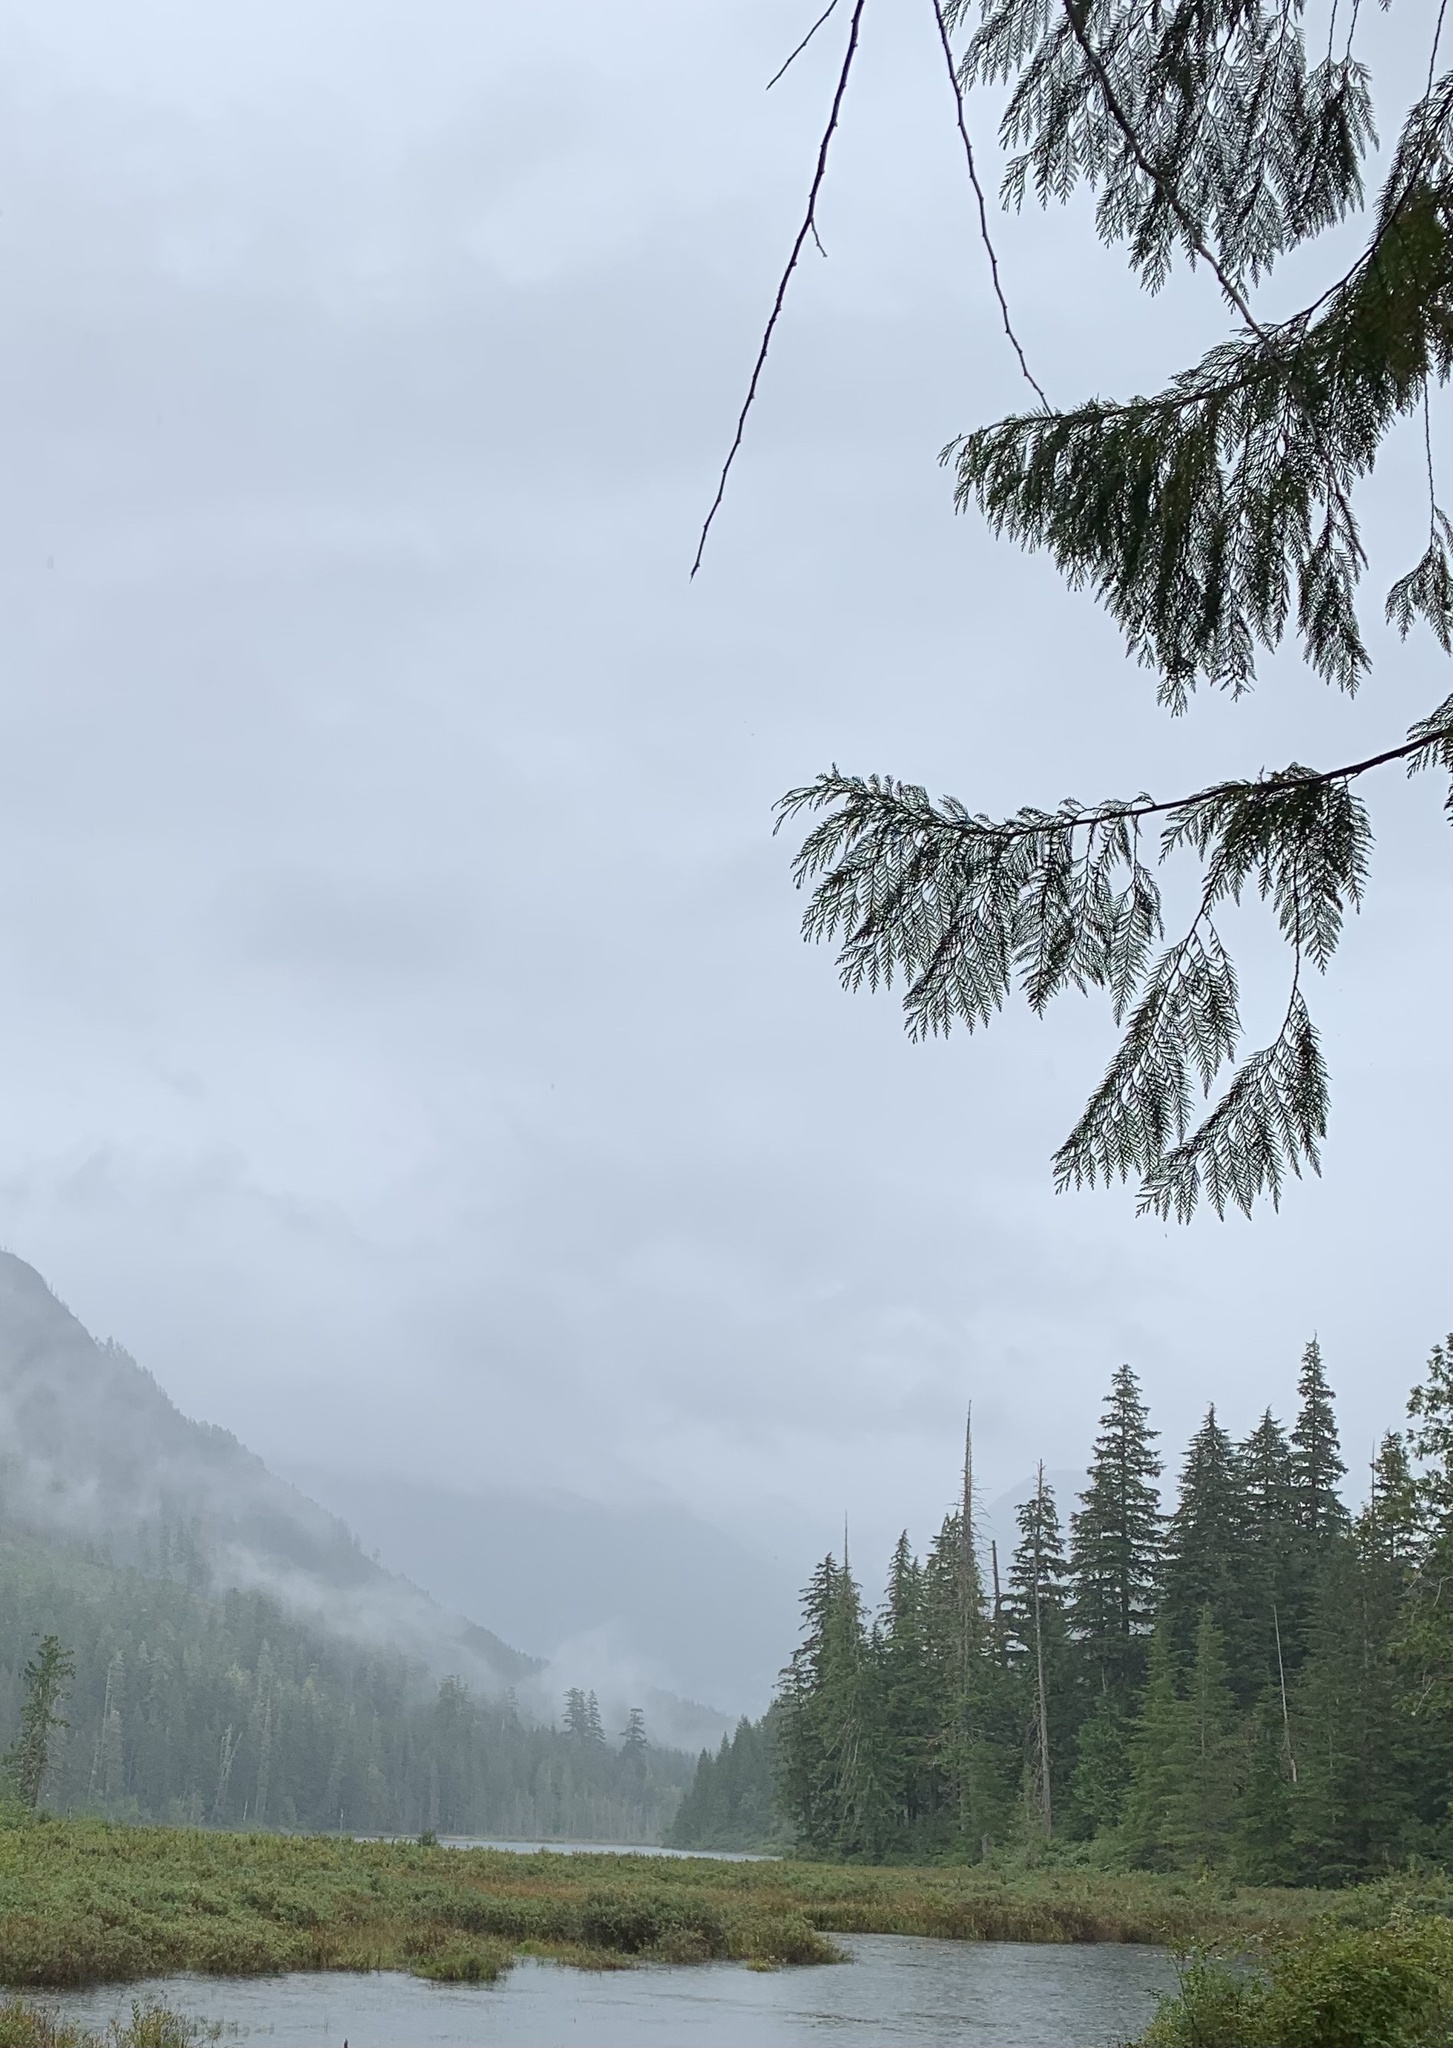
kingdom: Plantae
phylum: Tracheophyta
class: Pinopsida
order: Pinales
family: Cupressaceae
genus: Thuja
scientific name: Thuja plicata
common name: Western red-cedar
